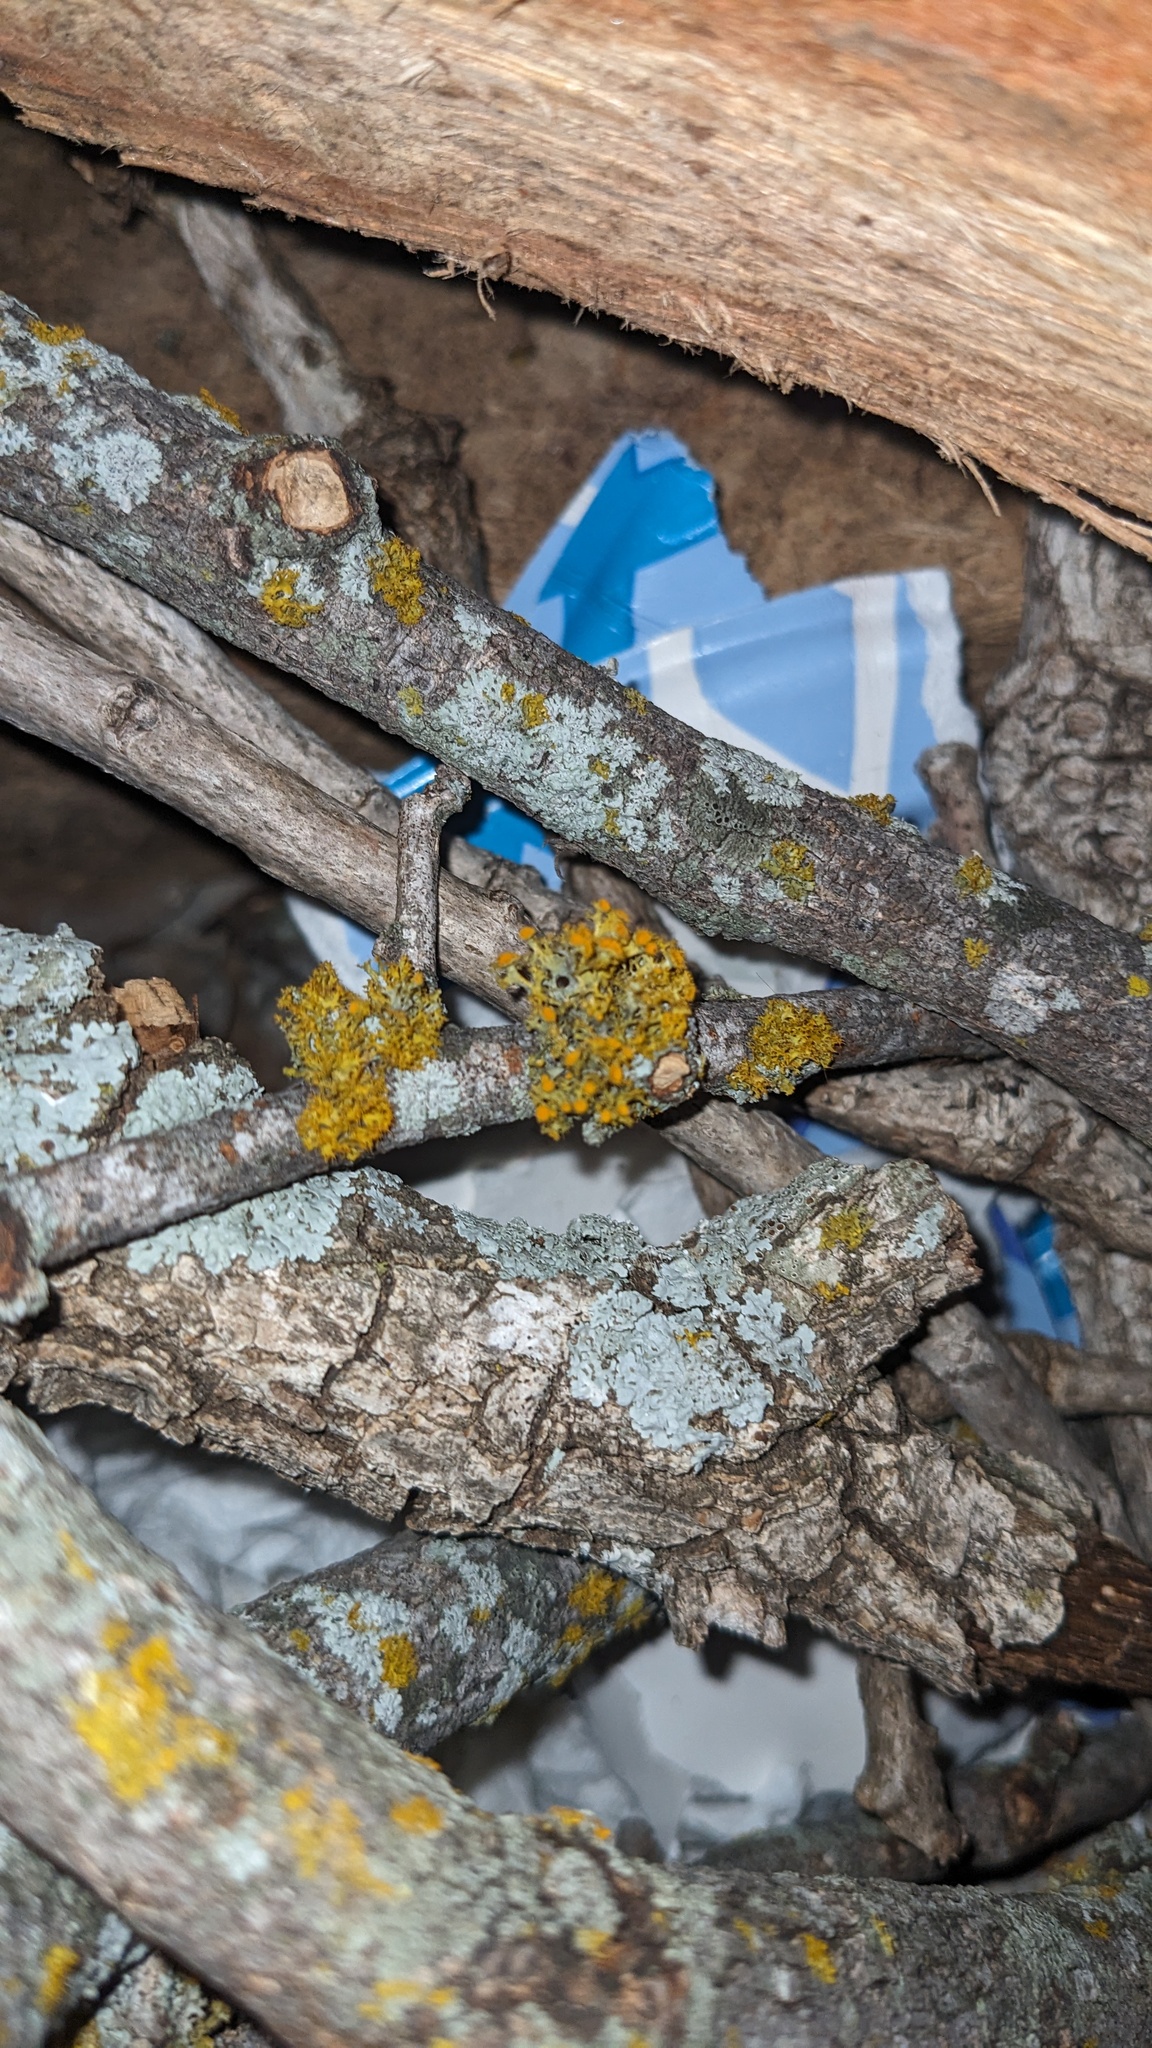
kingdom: Fungi
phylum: Ascomycota
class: Lecanoromycetes
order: Teloschistales
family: Teloschistaceae
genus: Niorma
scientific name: Niorma chrysophthalma
